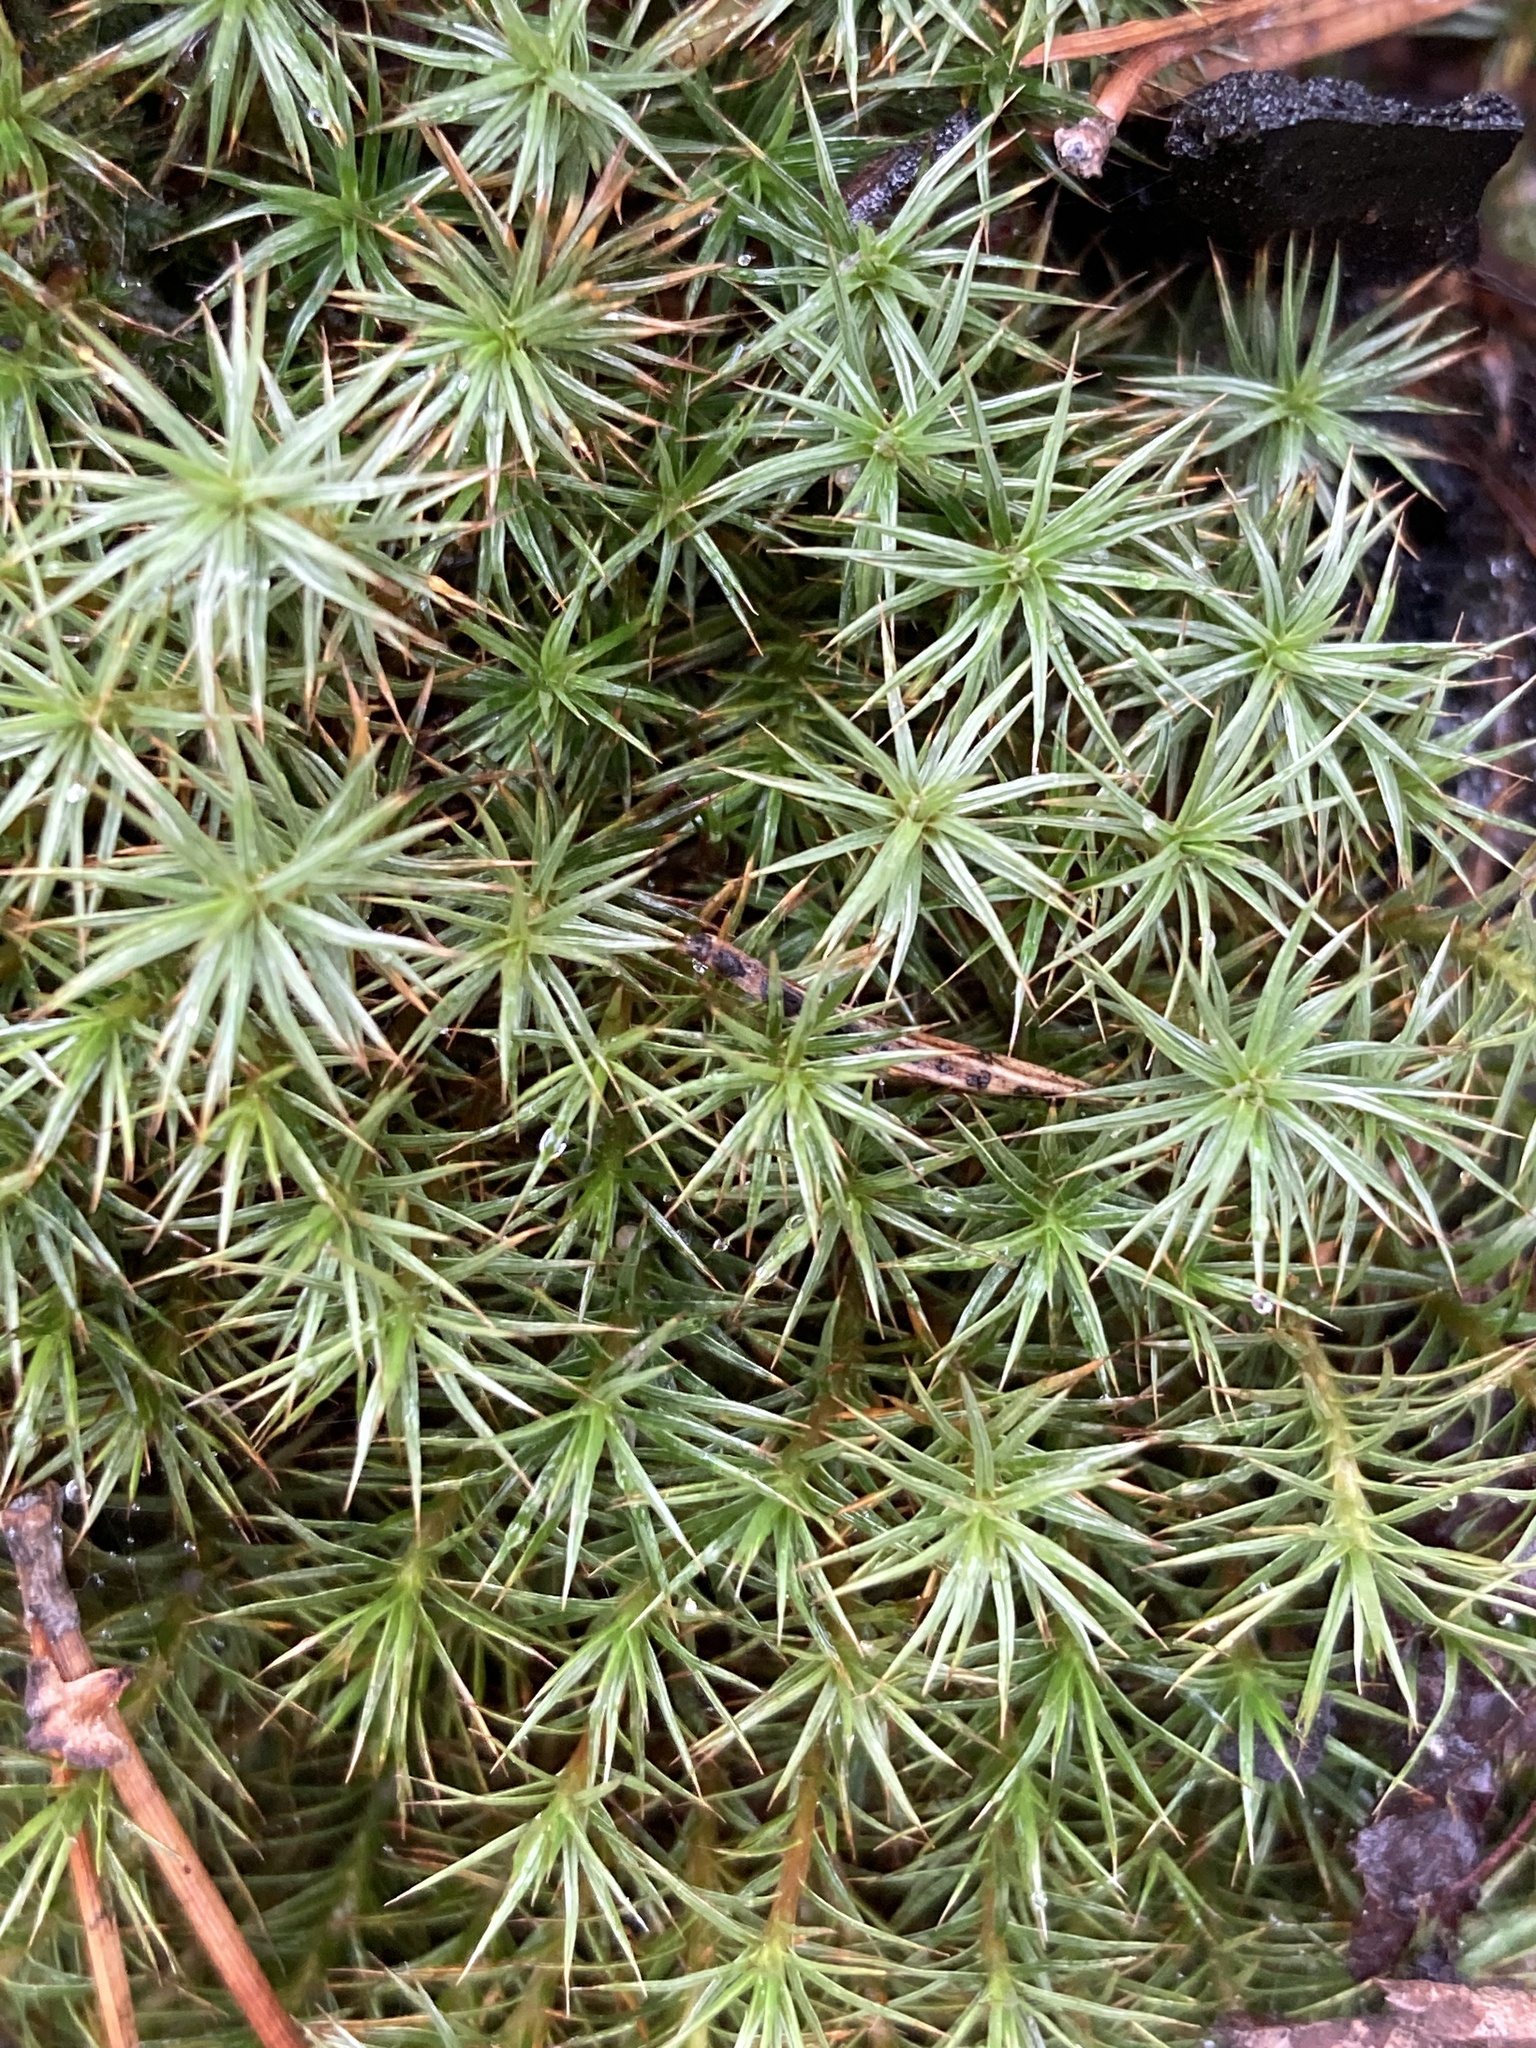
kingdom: Plantae
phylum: Bryophyta
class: Polytrichopsida
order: Polytrichales
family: Polytrichaceae
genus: Polytrichum
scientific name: Polytrichum juniperinum
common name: Juniper haircap moss
